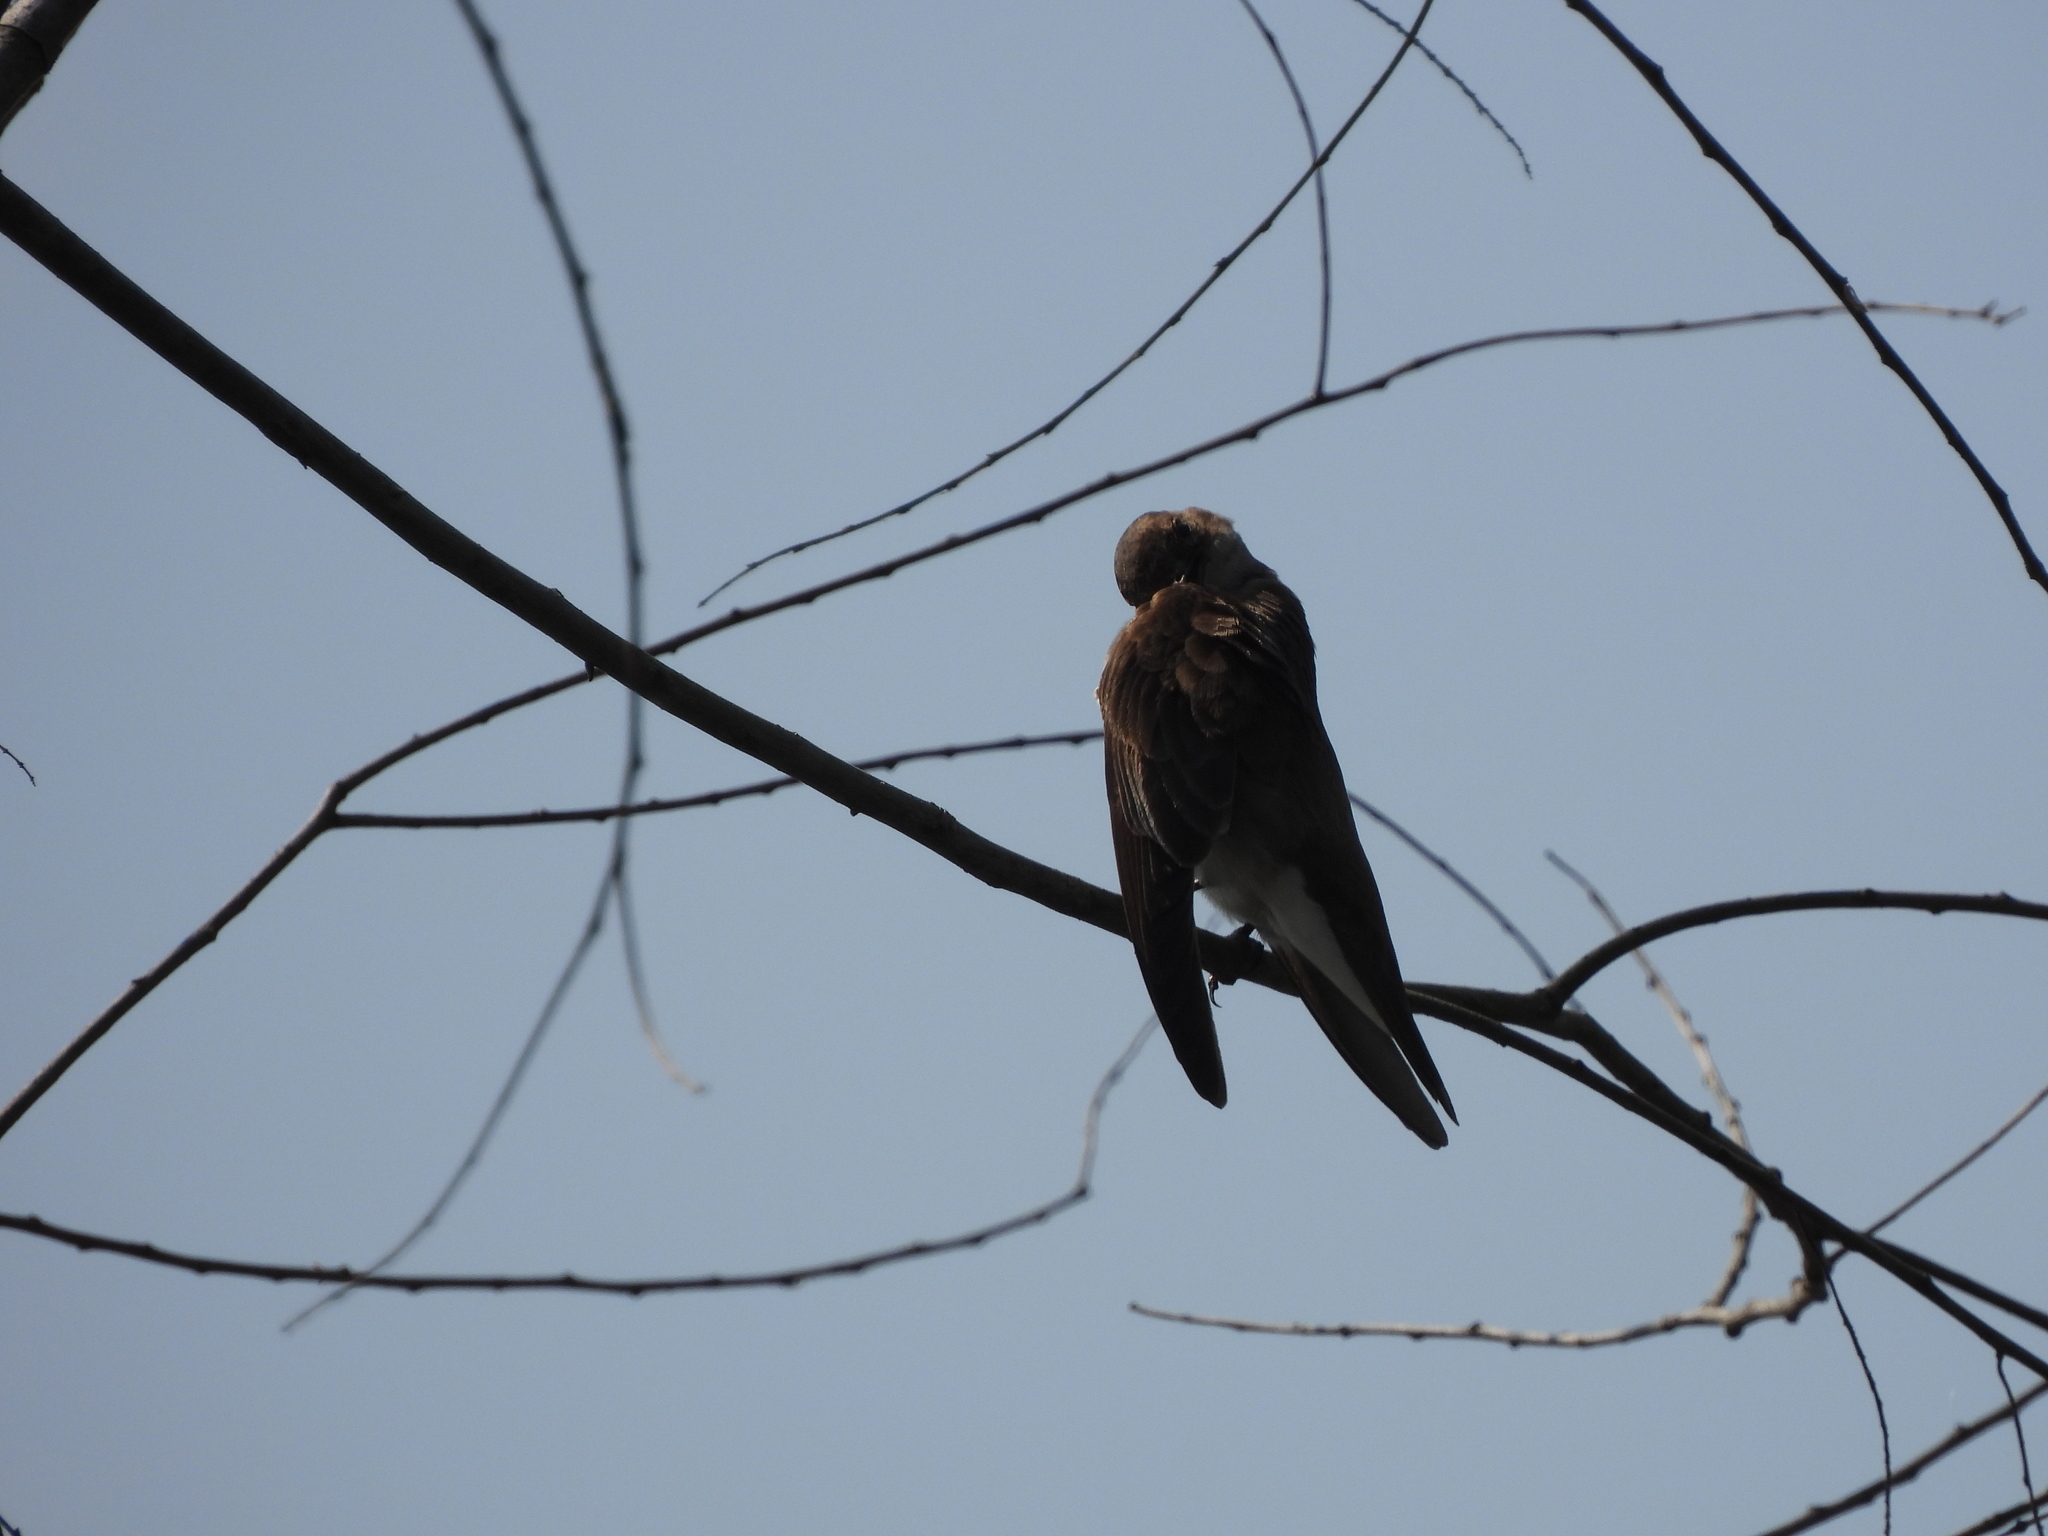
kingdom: Animalia
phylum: Chordata
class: Aves
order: Passeriformes
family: Hirundinidae
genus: Stelgidopteryx
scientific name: Stelgidopteryx serripennis
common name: Northern rough-winged swallow
